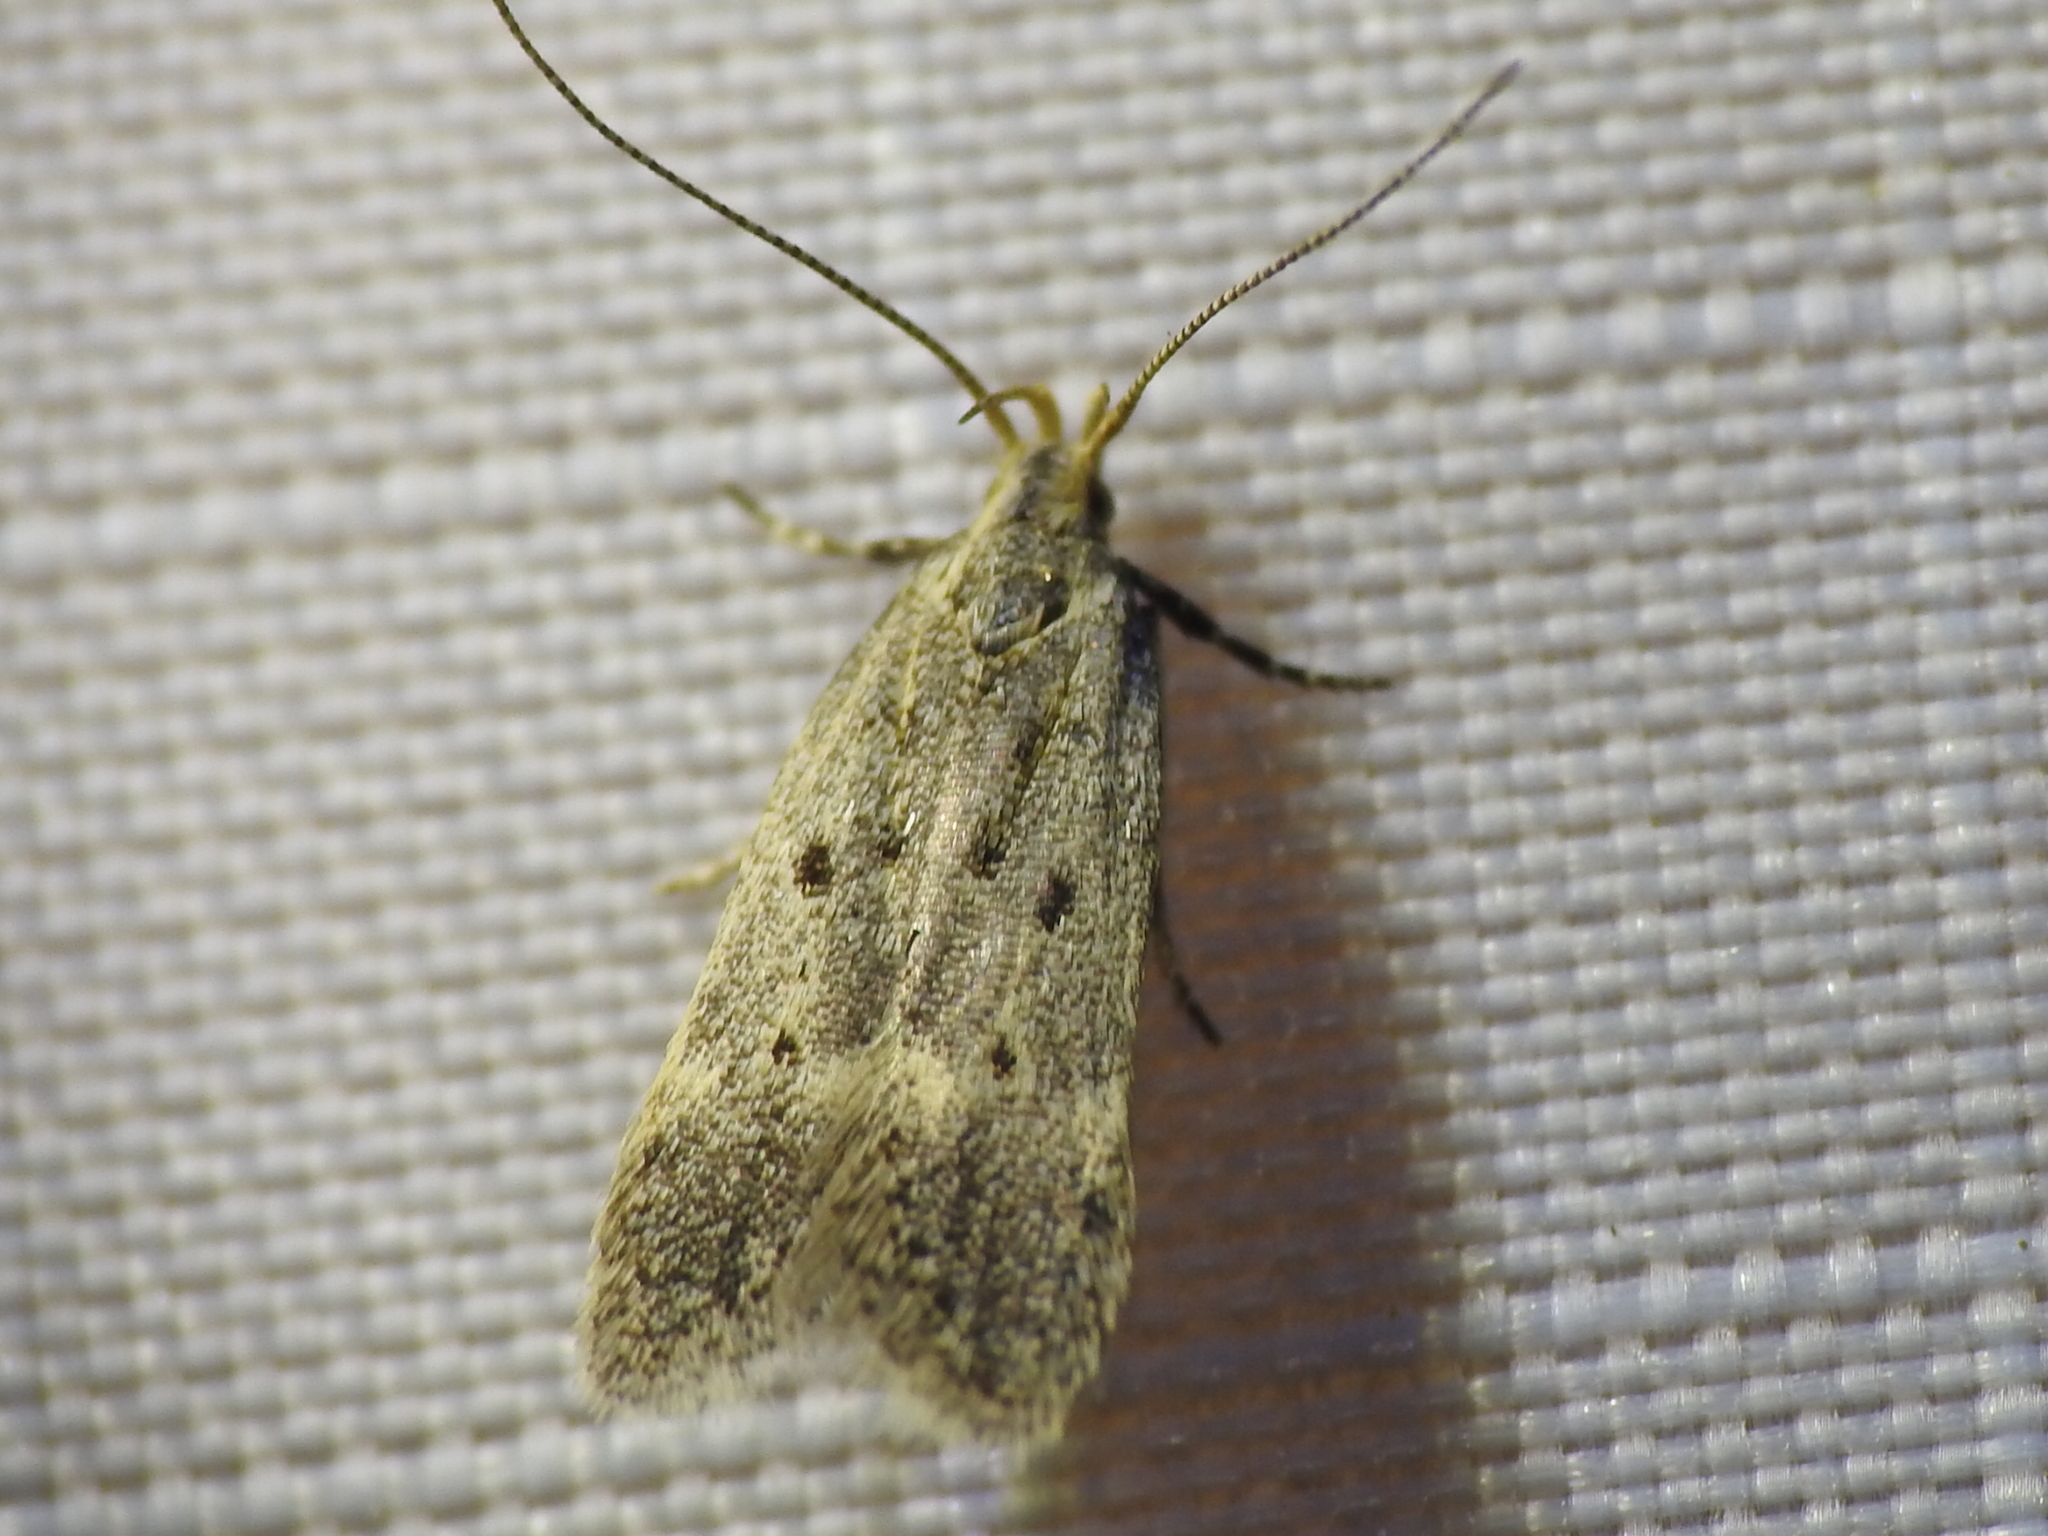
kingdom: Animalia
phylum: Arthropoda
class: Insecta
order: Lepidoptera
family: Gelechiidae
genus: Neodactylota
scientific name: Neodactylota liguritrix
